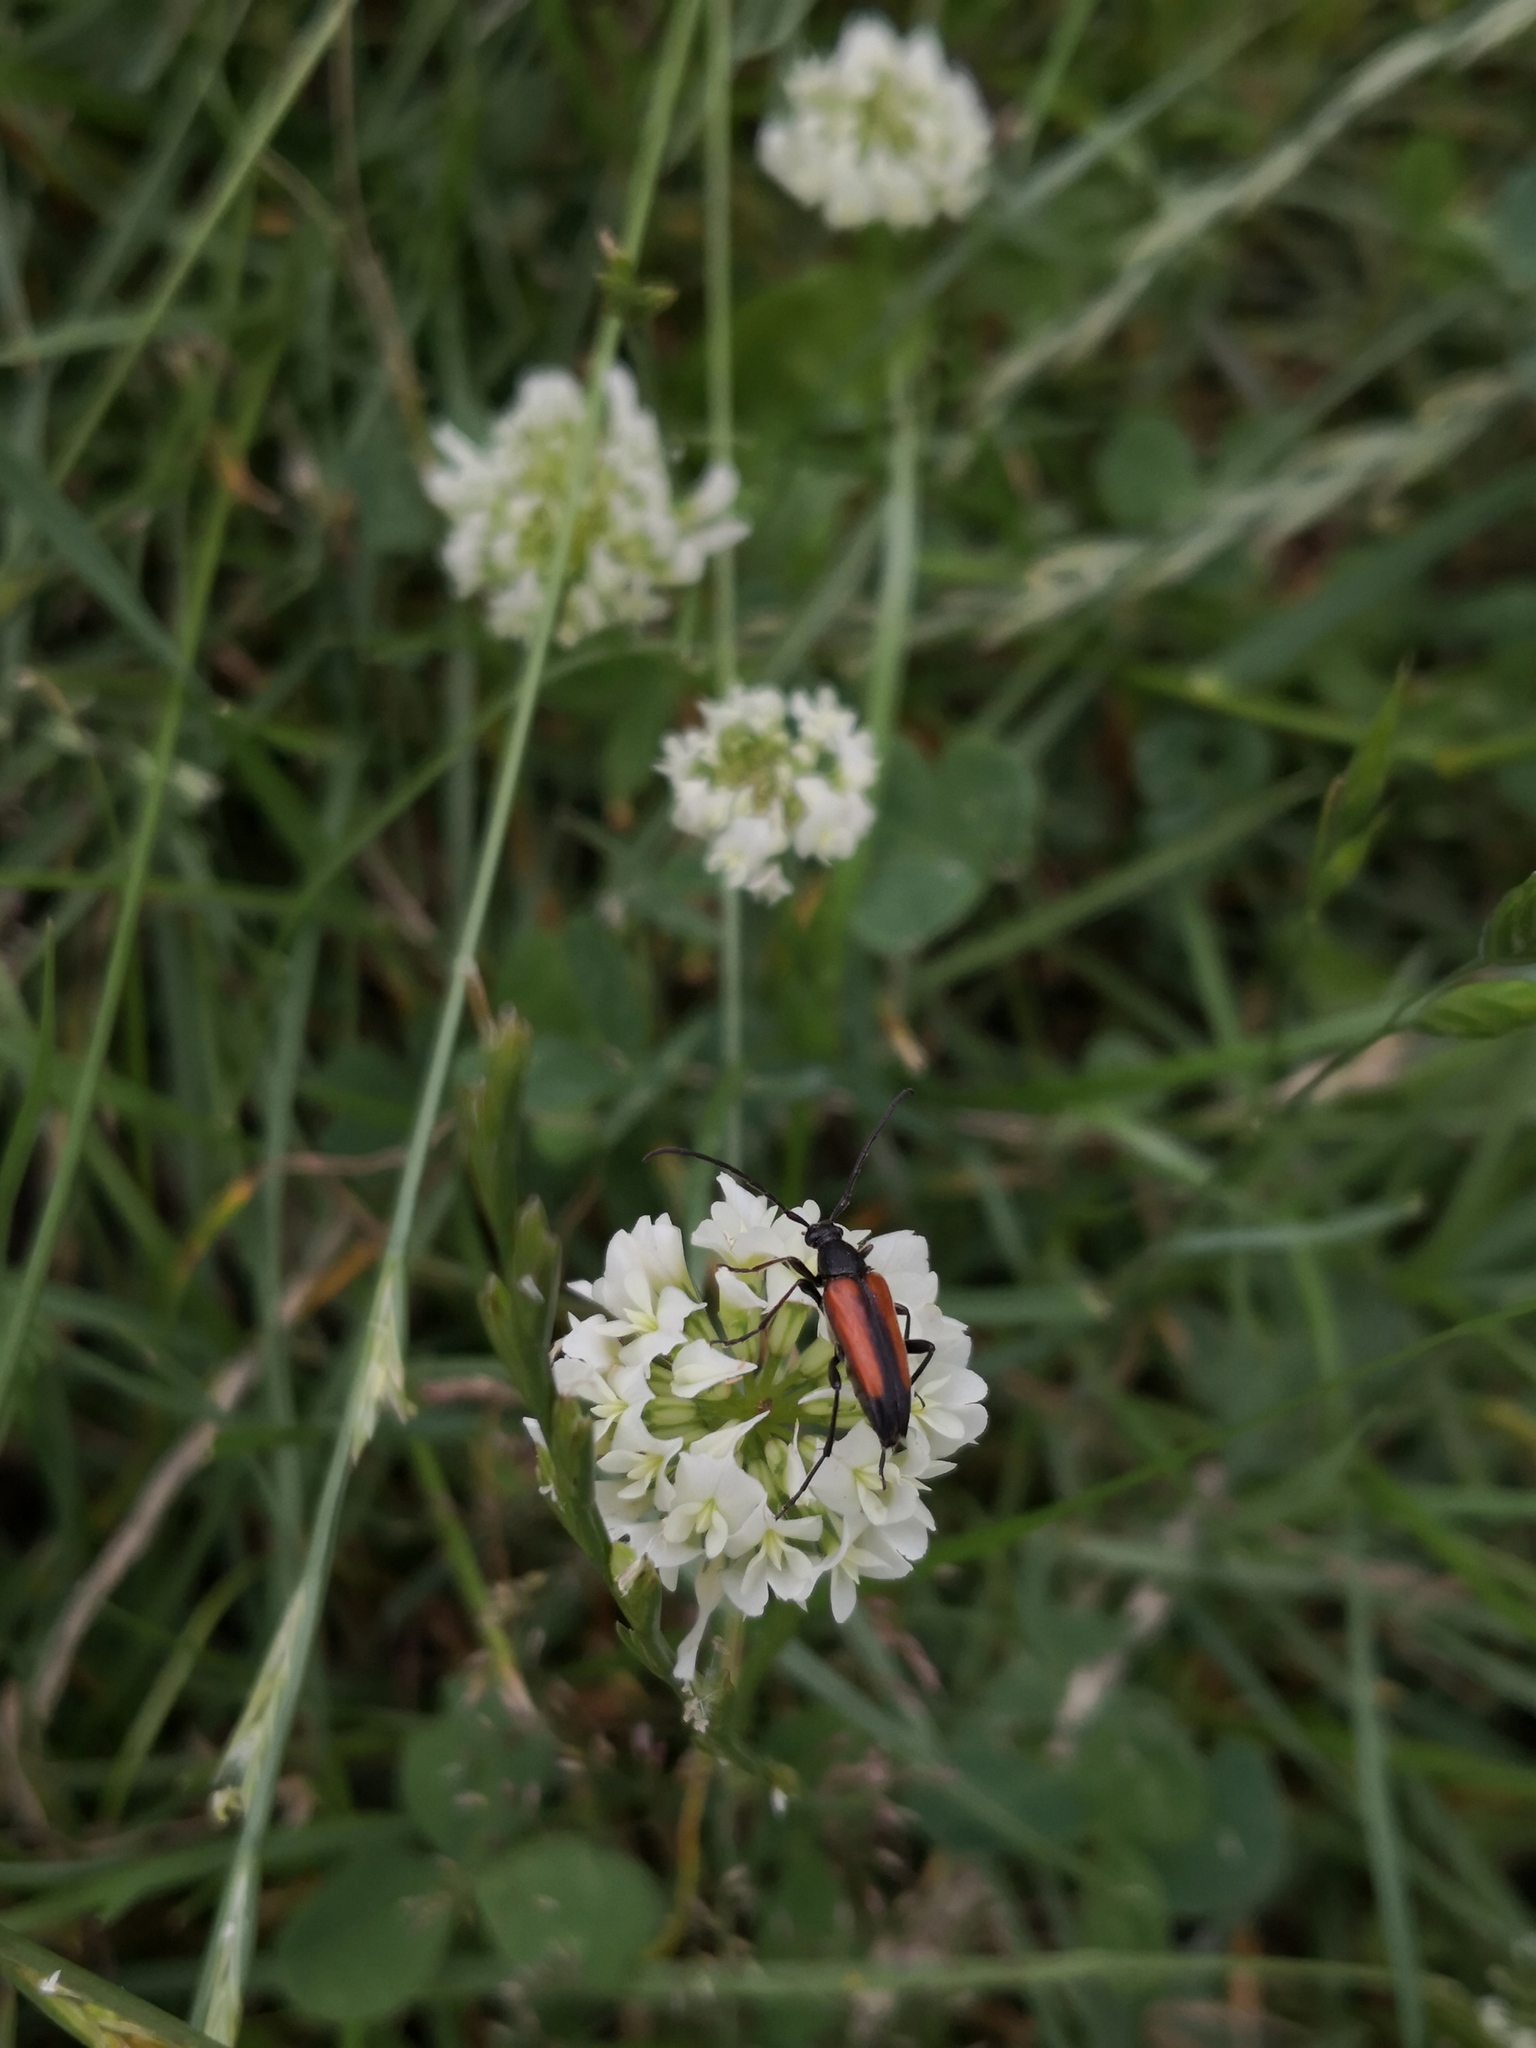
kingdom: Animalia
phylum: Arthropoda
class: Insecta
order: Coleoptera
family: Cerambycidae
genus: Stenurella
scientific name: Stenurella melanura
